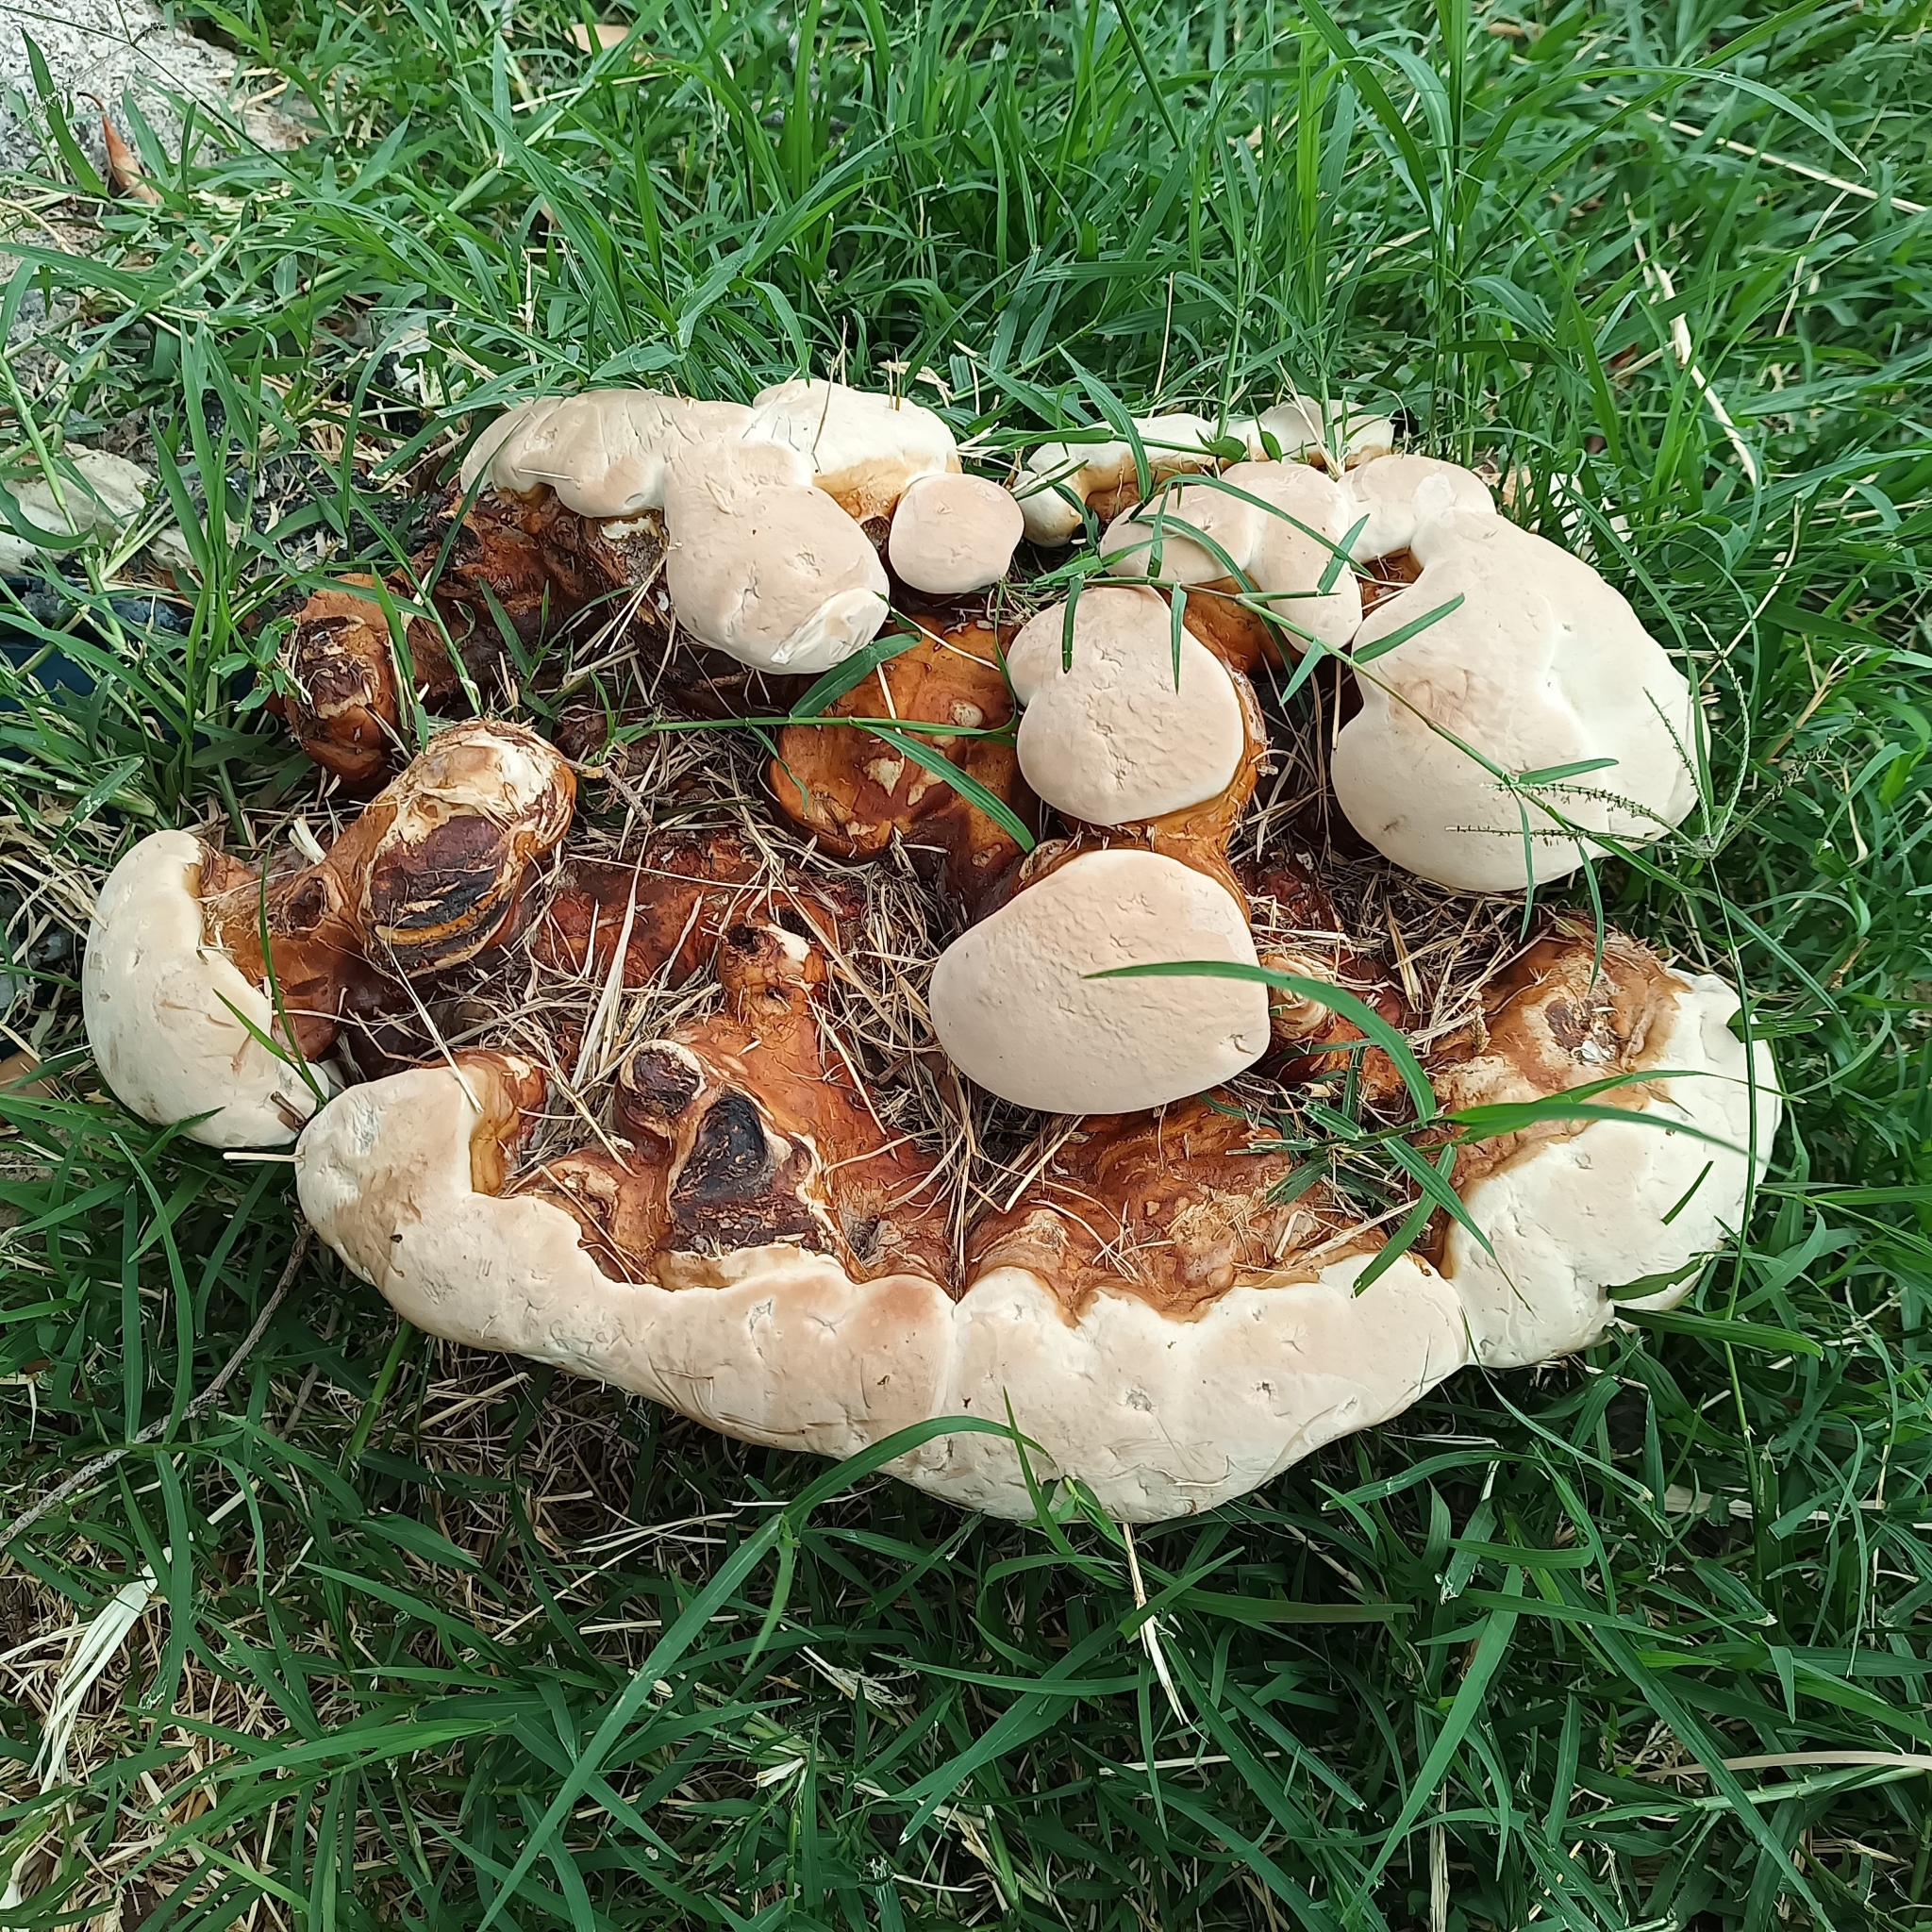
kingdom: Fungi
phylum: Basidiomycota
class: Agaricomycetes
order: Polyporales
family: Polyporaceae
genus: Ganoderma
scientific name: Ganoderma polychromum
